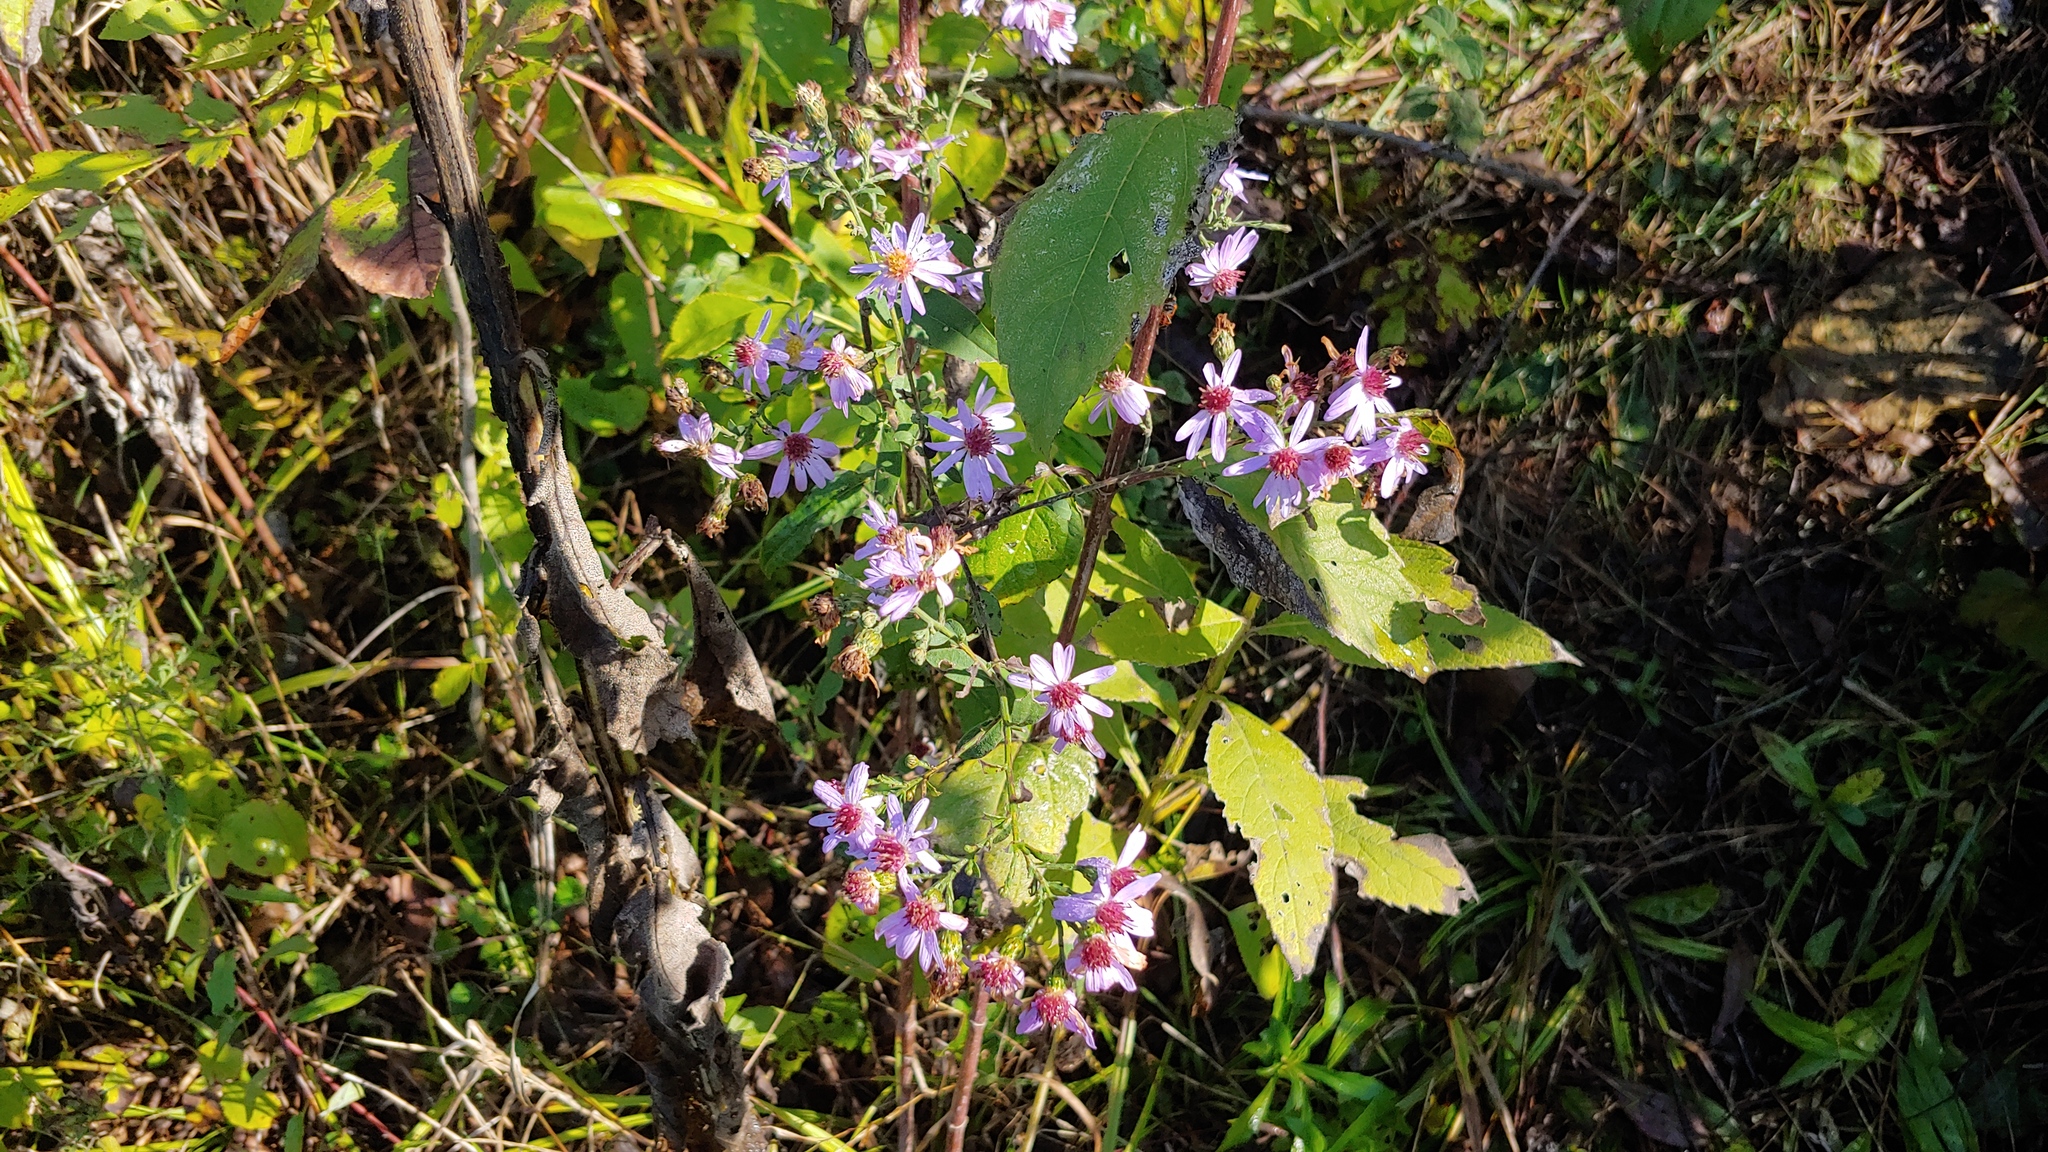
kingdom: Plantae
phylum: Tracheophyta
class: Magnoliopsida
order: Asterales
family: Asteraceae
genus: Symphyotrichum
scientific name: Symphyotrichum shortii
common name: Short's aster
